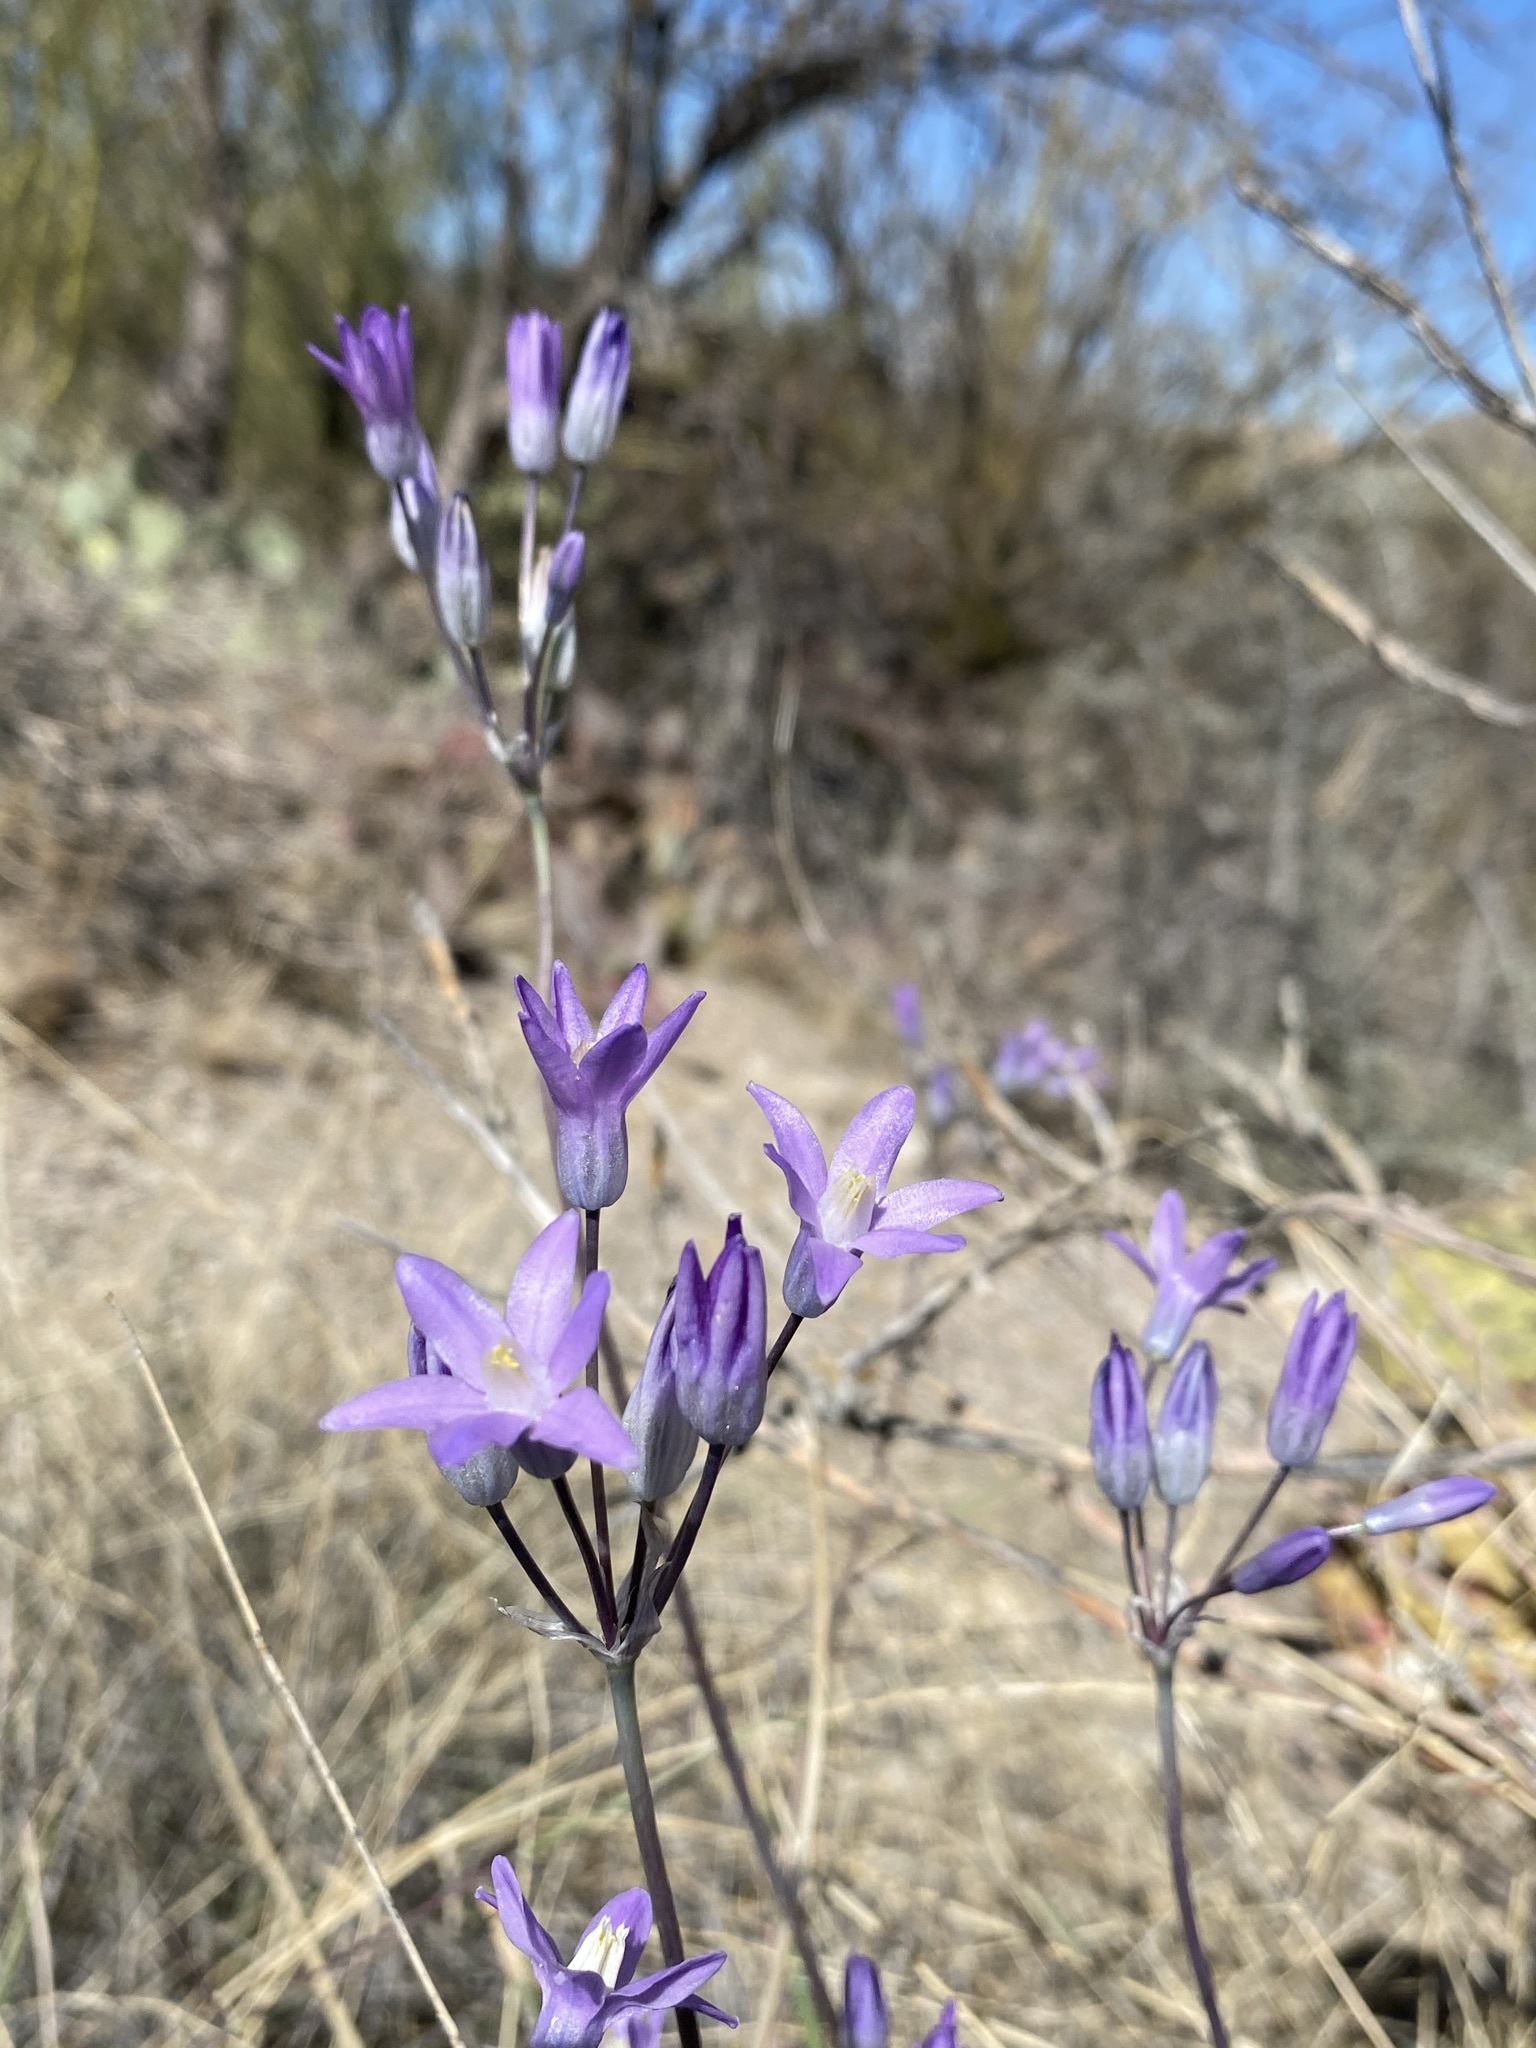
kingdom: Plantae
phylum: Tracheophyta
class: Liliopsida
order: Asparagales
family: Asparagaceae
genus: Dipterostemon
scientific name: Dipterostemon capitatus
